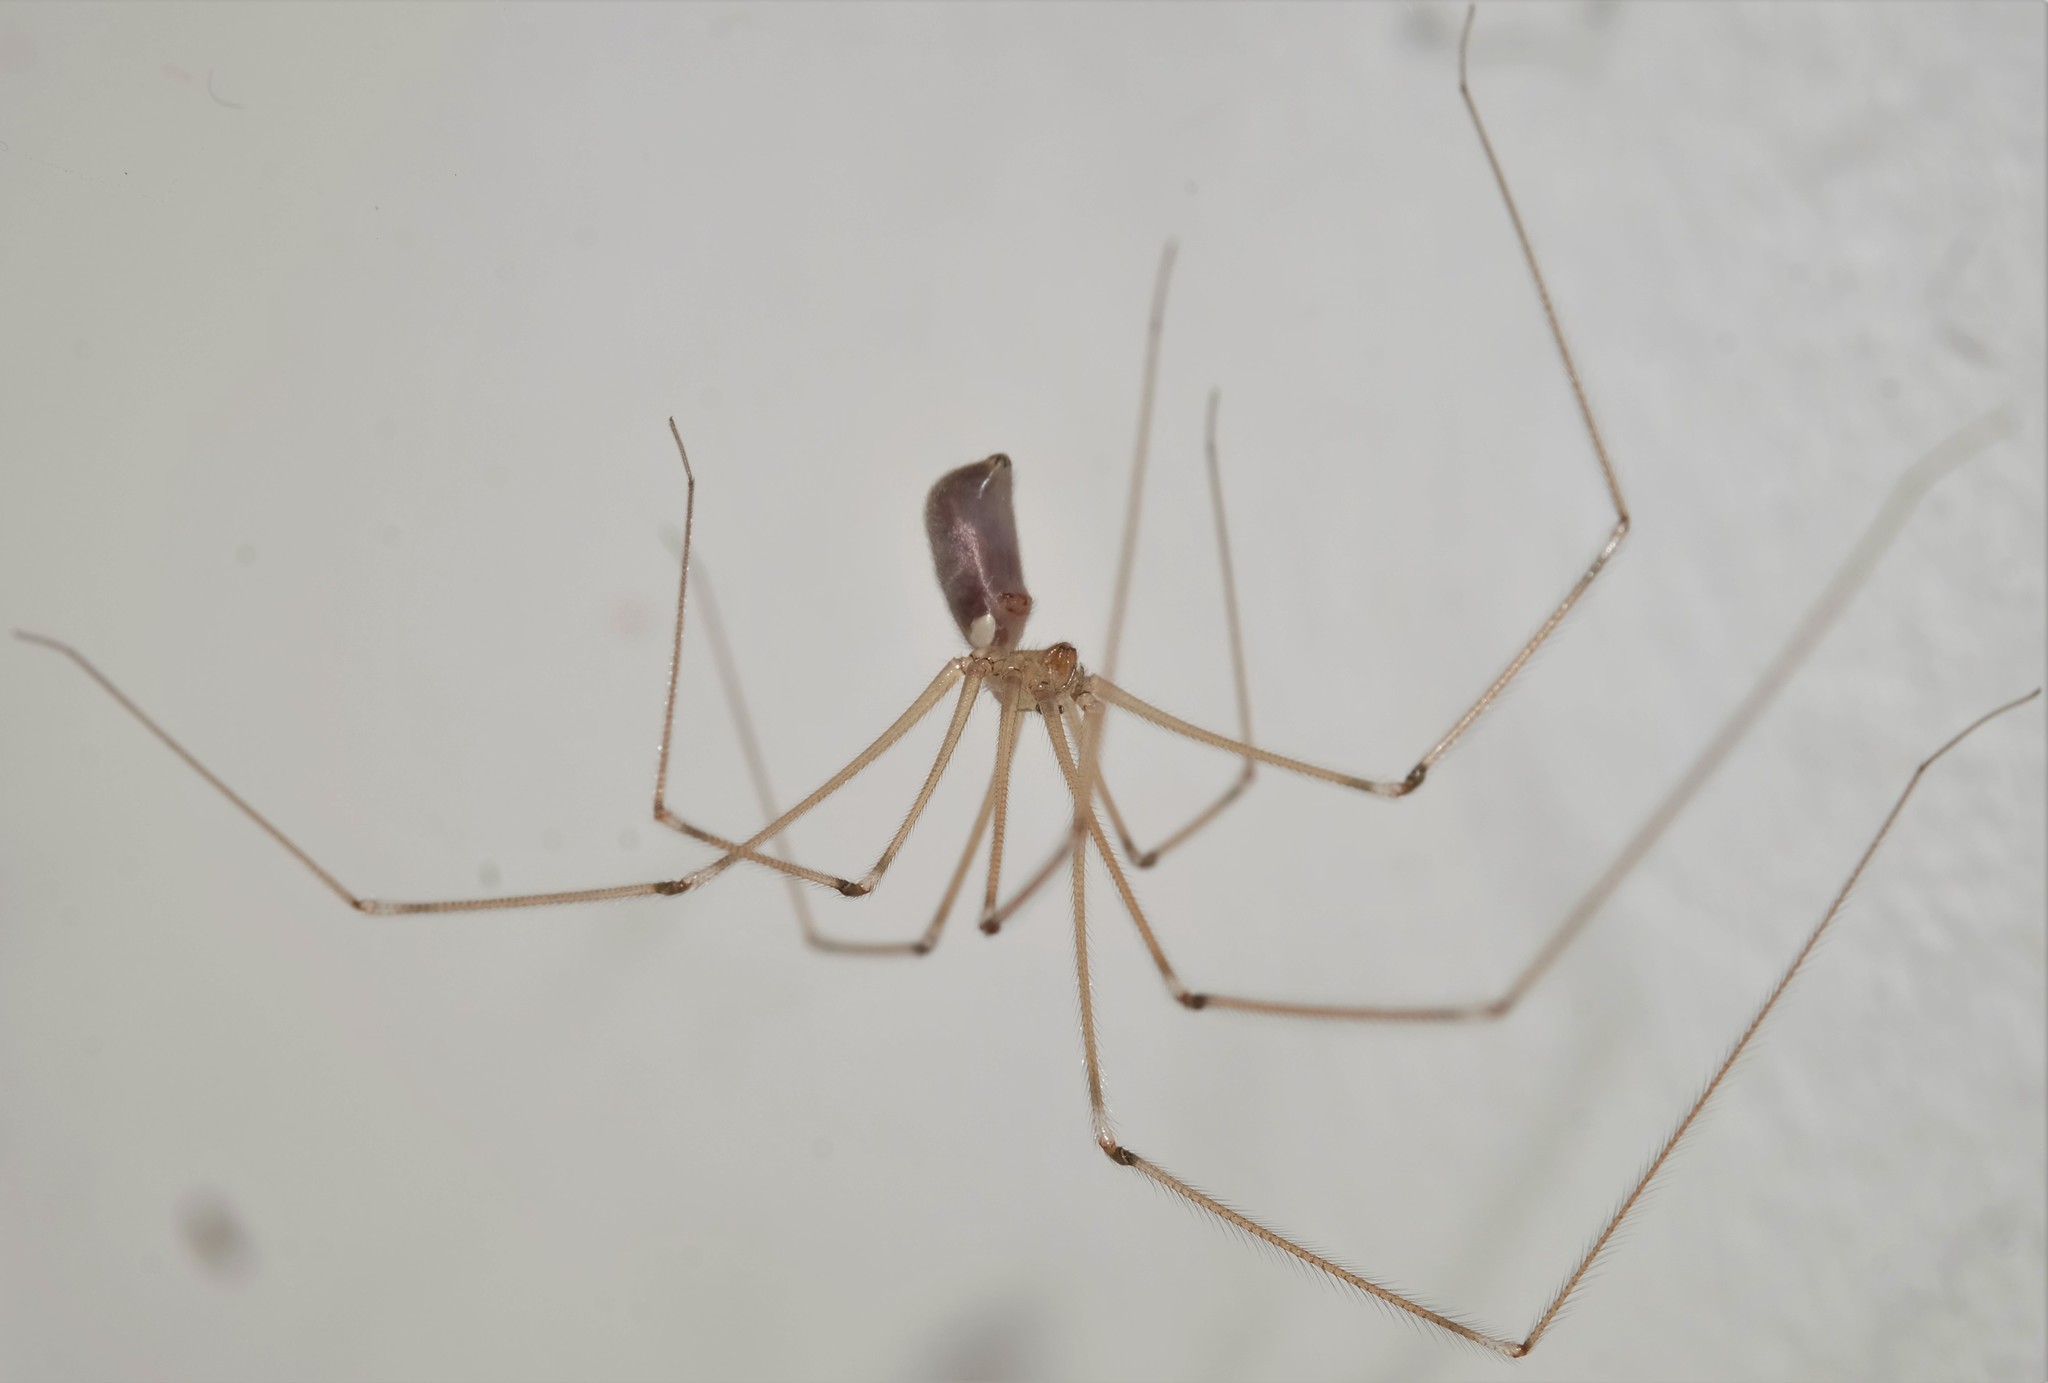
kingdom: Animalia
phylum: Arthropoda
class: Arachnida
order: Araneae
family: Pholcidae
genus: Pholcus
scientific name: Pholcus phalangioides
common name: Longbodied cellar spider
